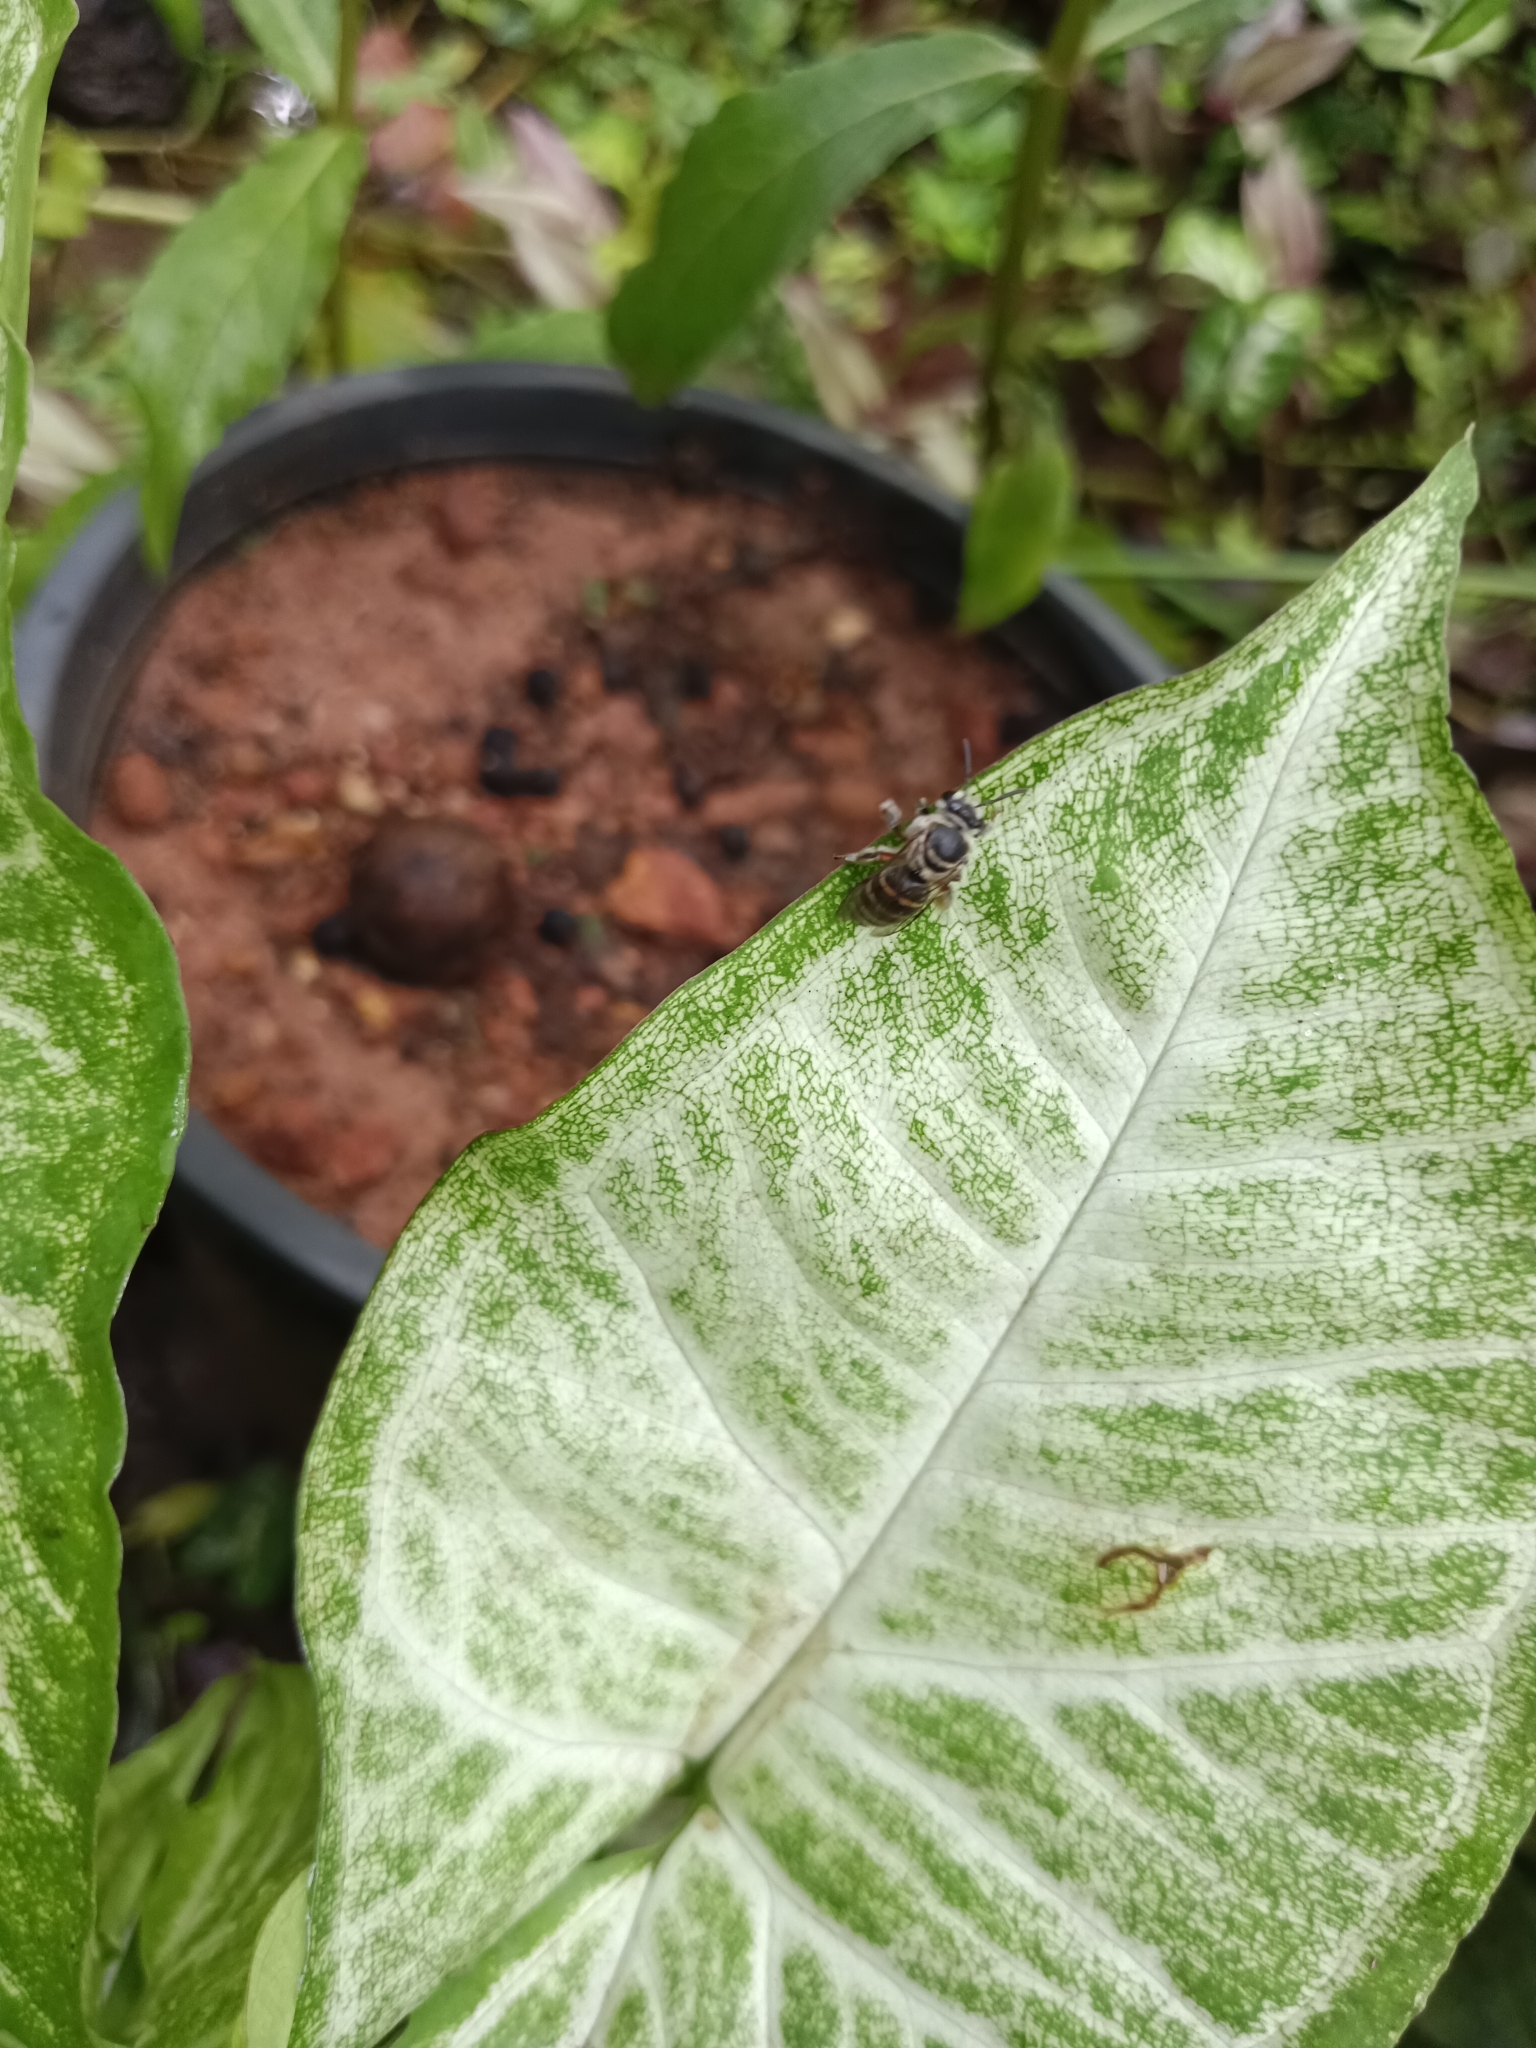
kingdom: Animalia
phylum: Arthropoda
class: Insecta
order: Hymenoptera
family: Halictidae
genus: Nomia
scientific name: Nomia westwoodi
